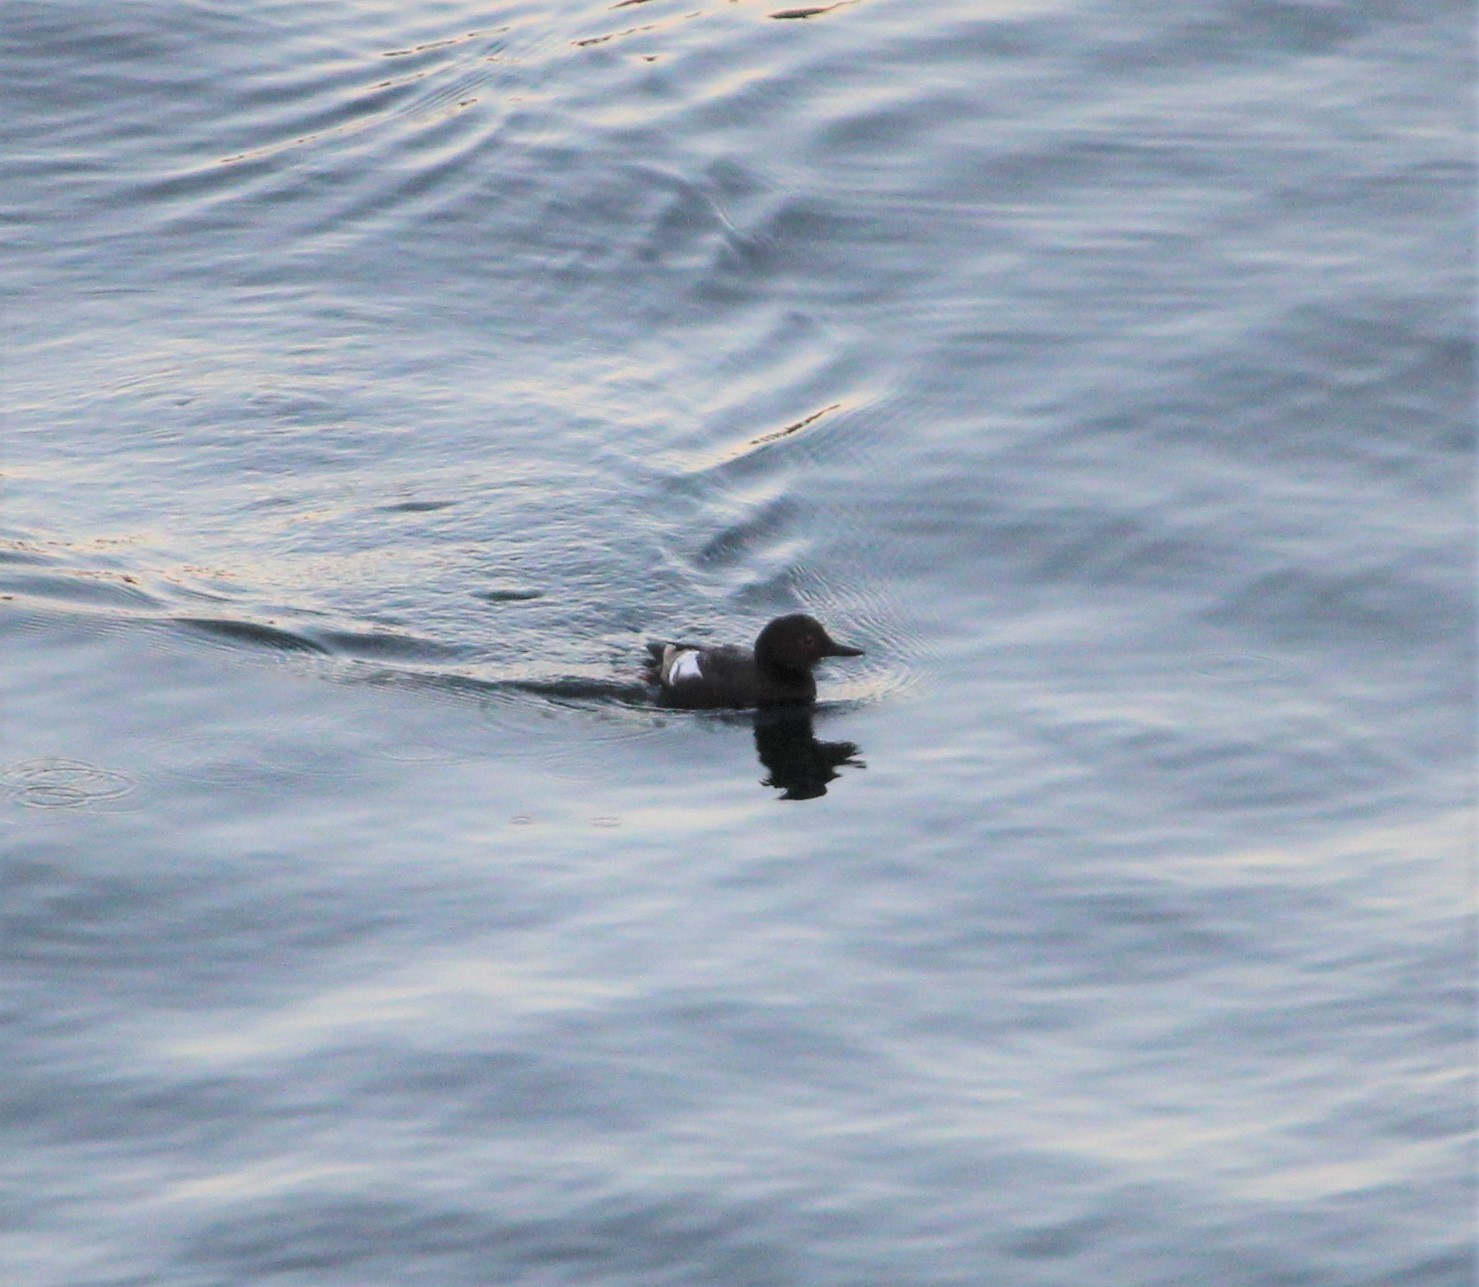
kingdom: Animalia
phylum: Chordata
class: Aves
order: Charadriiformes
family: Alcidae
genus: Cepphus
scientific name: Cepphus columba
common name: Pigeon guillemot
